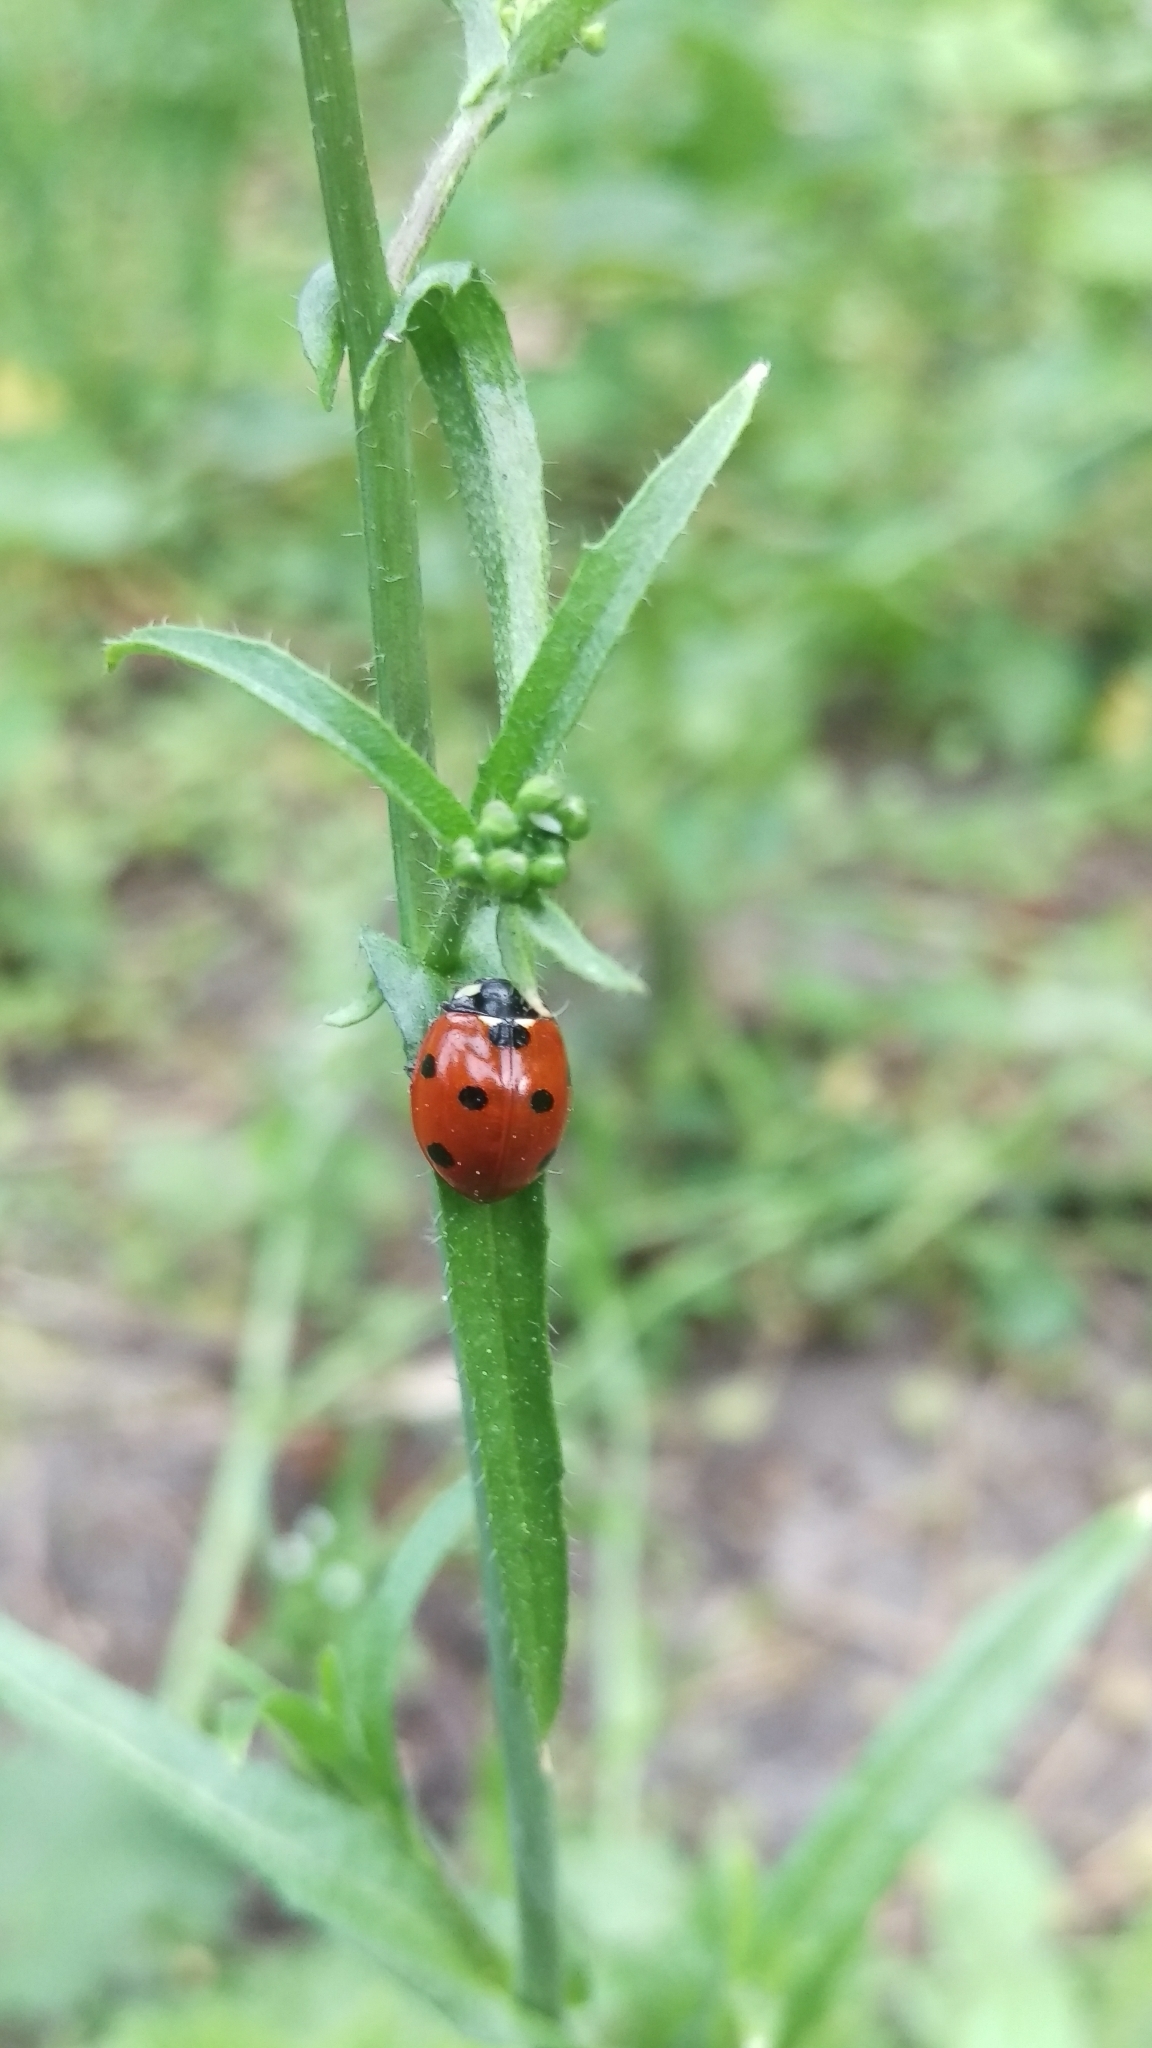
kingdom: Animalia
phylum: Arthropoda
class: Insecta
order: Coleoptera
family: Coccinellidae
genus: Coccinella
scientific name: Coccinella septempunctata
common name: Sevenspotted lady beetle
